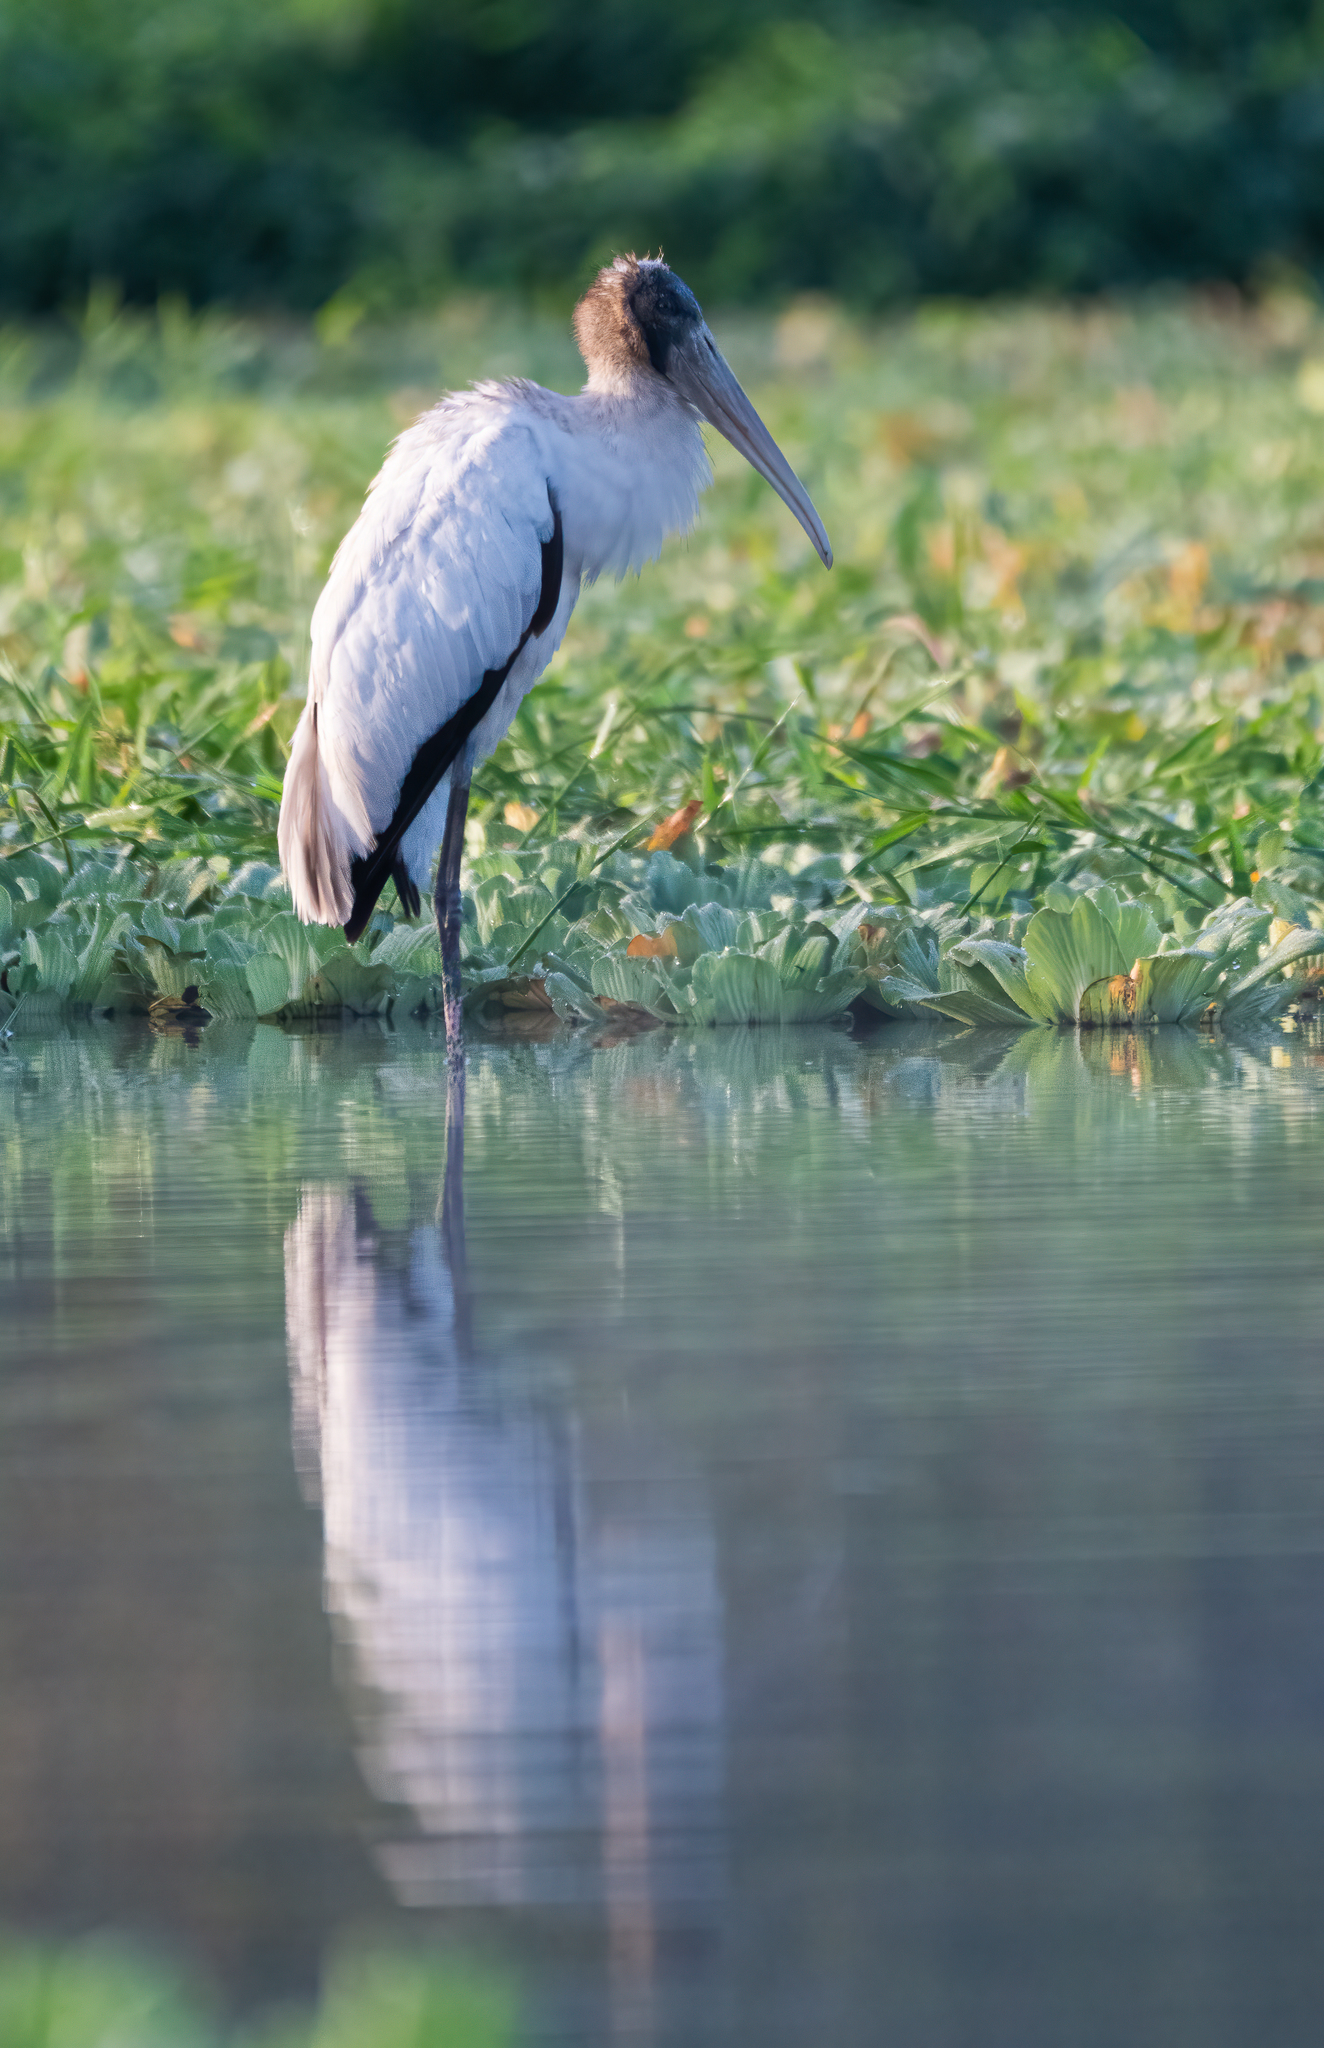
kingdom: Animalia
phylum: Chordata
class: Aves
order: Ciconiiformes
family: Ciconiidae
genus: Mycteria
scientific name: Mycteria americana
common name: Wood stork
